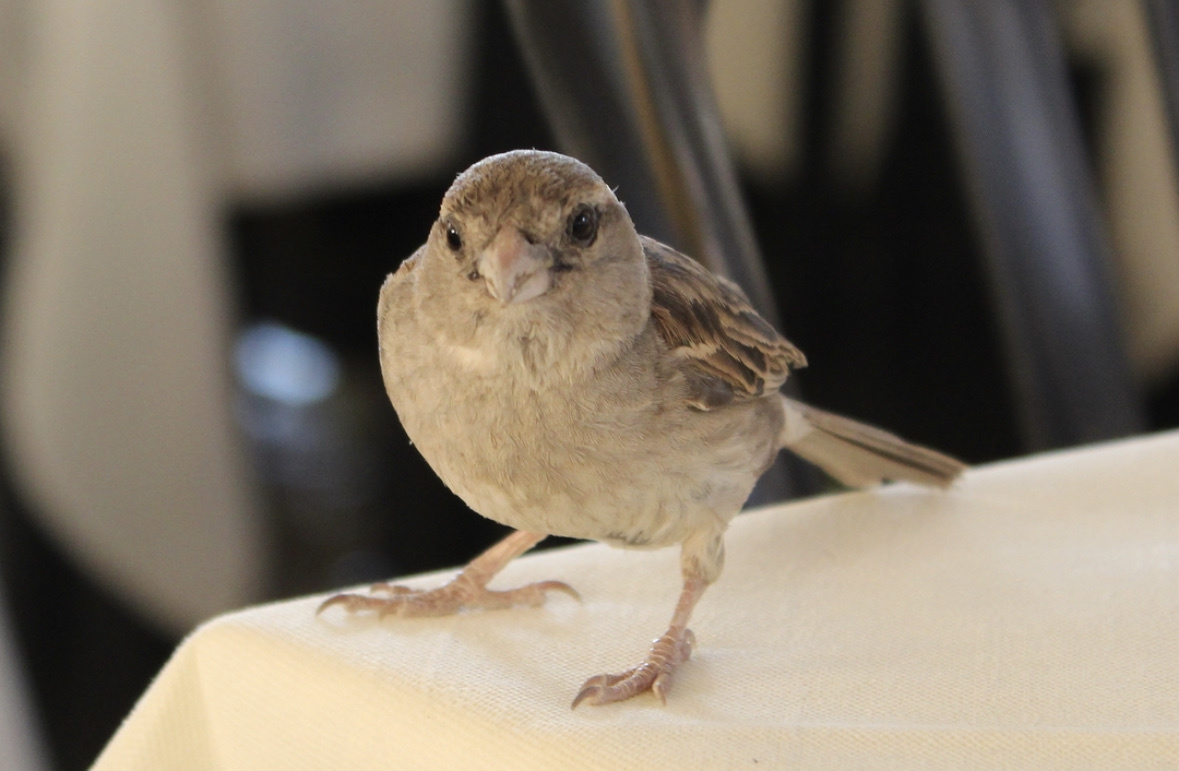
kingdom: Animalia
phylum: Chordata
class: Aves
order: Passeriformes
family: Passeridae
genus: Passer
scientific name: Passer italiae
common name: Italian sparrow
